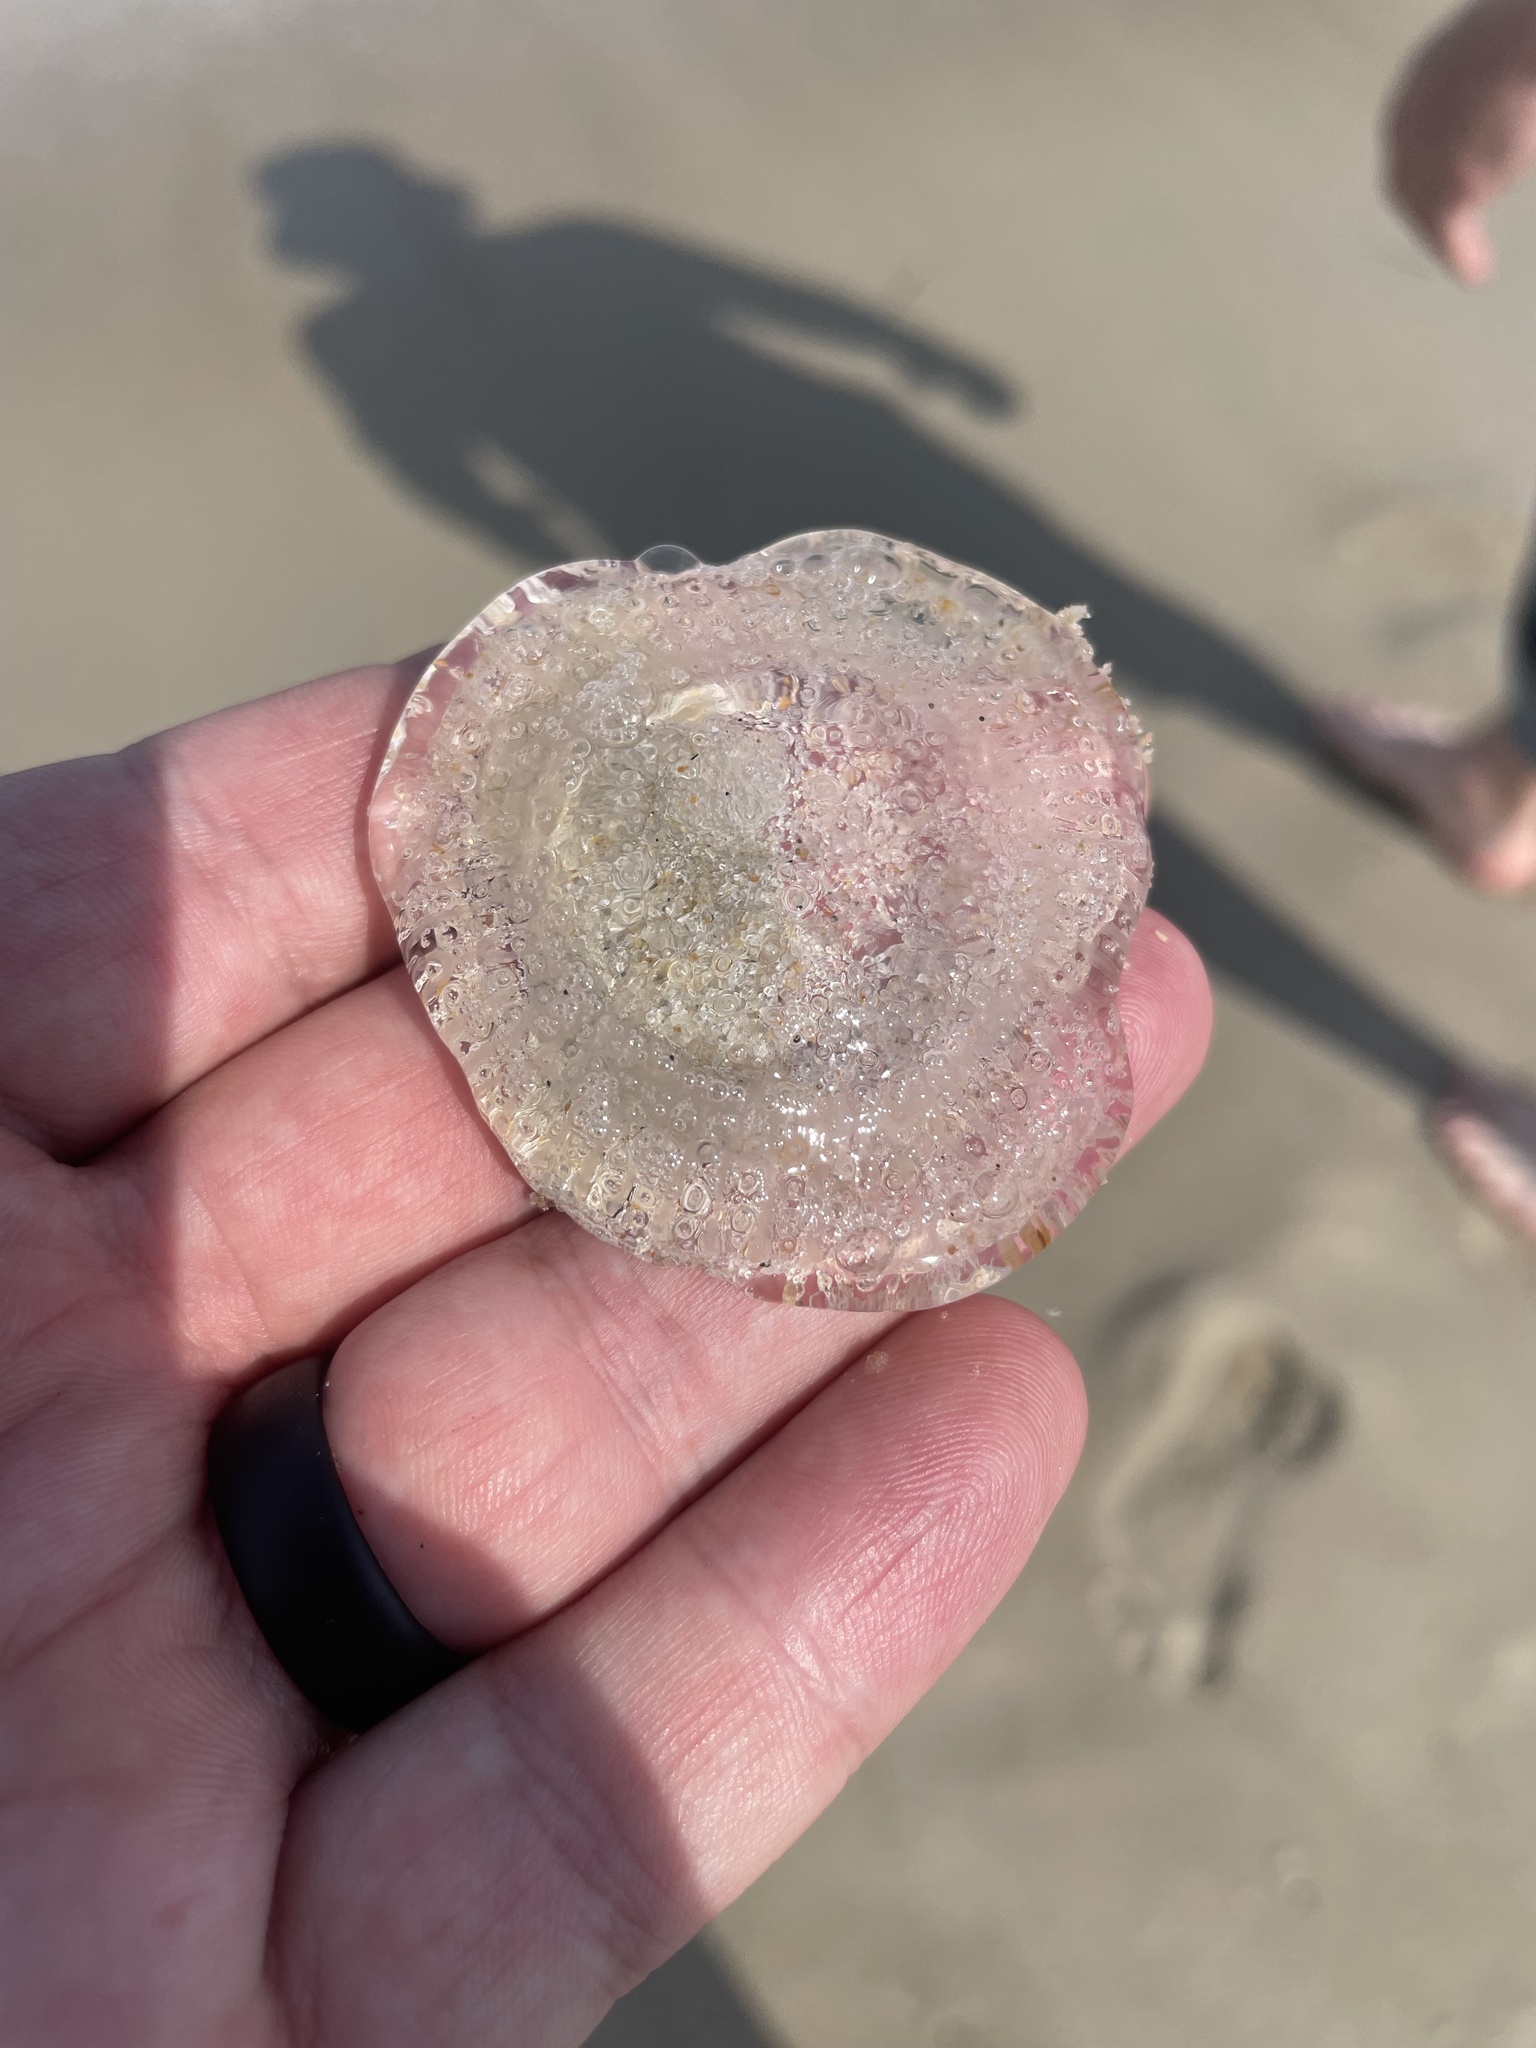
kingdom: Animalia
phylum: Cnidaria
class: Hydrozoa
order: Leptothecata
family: Aequoreidae
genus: Rhacostoma
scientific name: Rhacostoma atlanticum
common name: Lined water jelly
